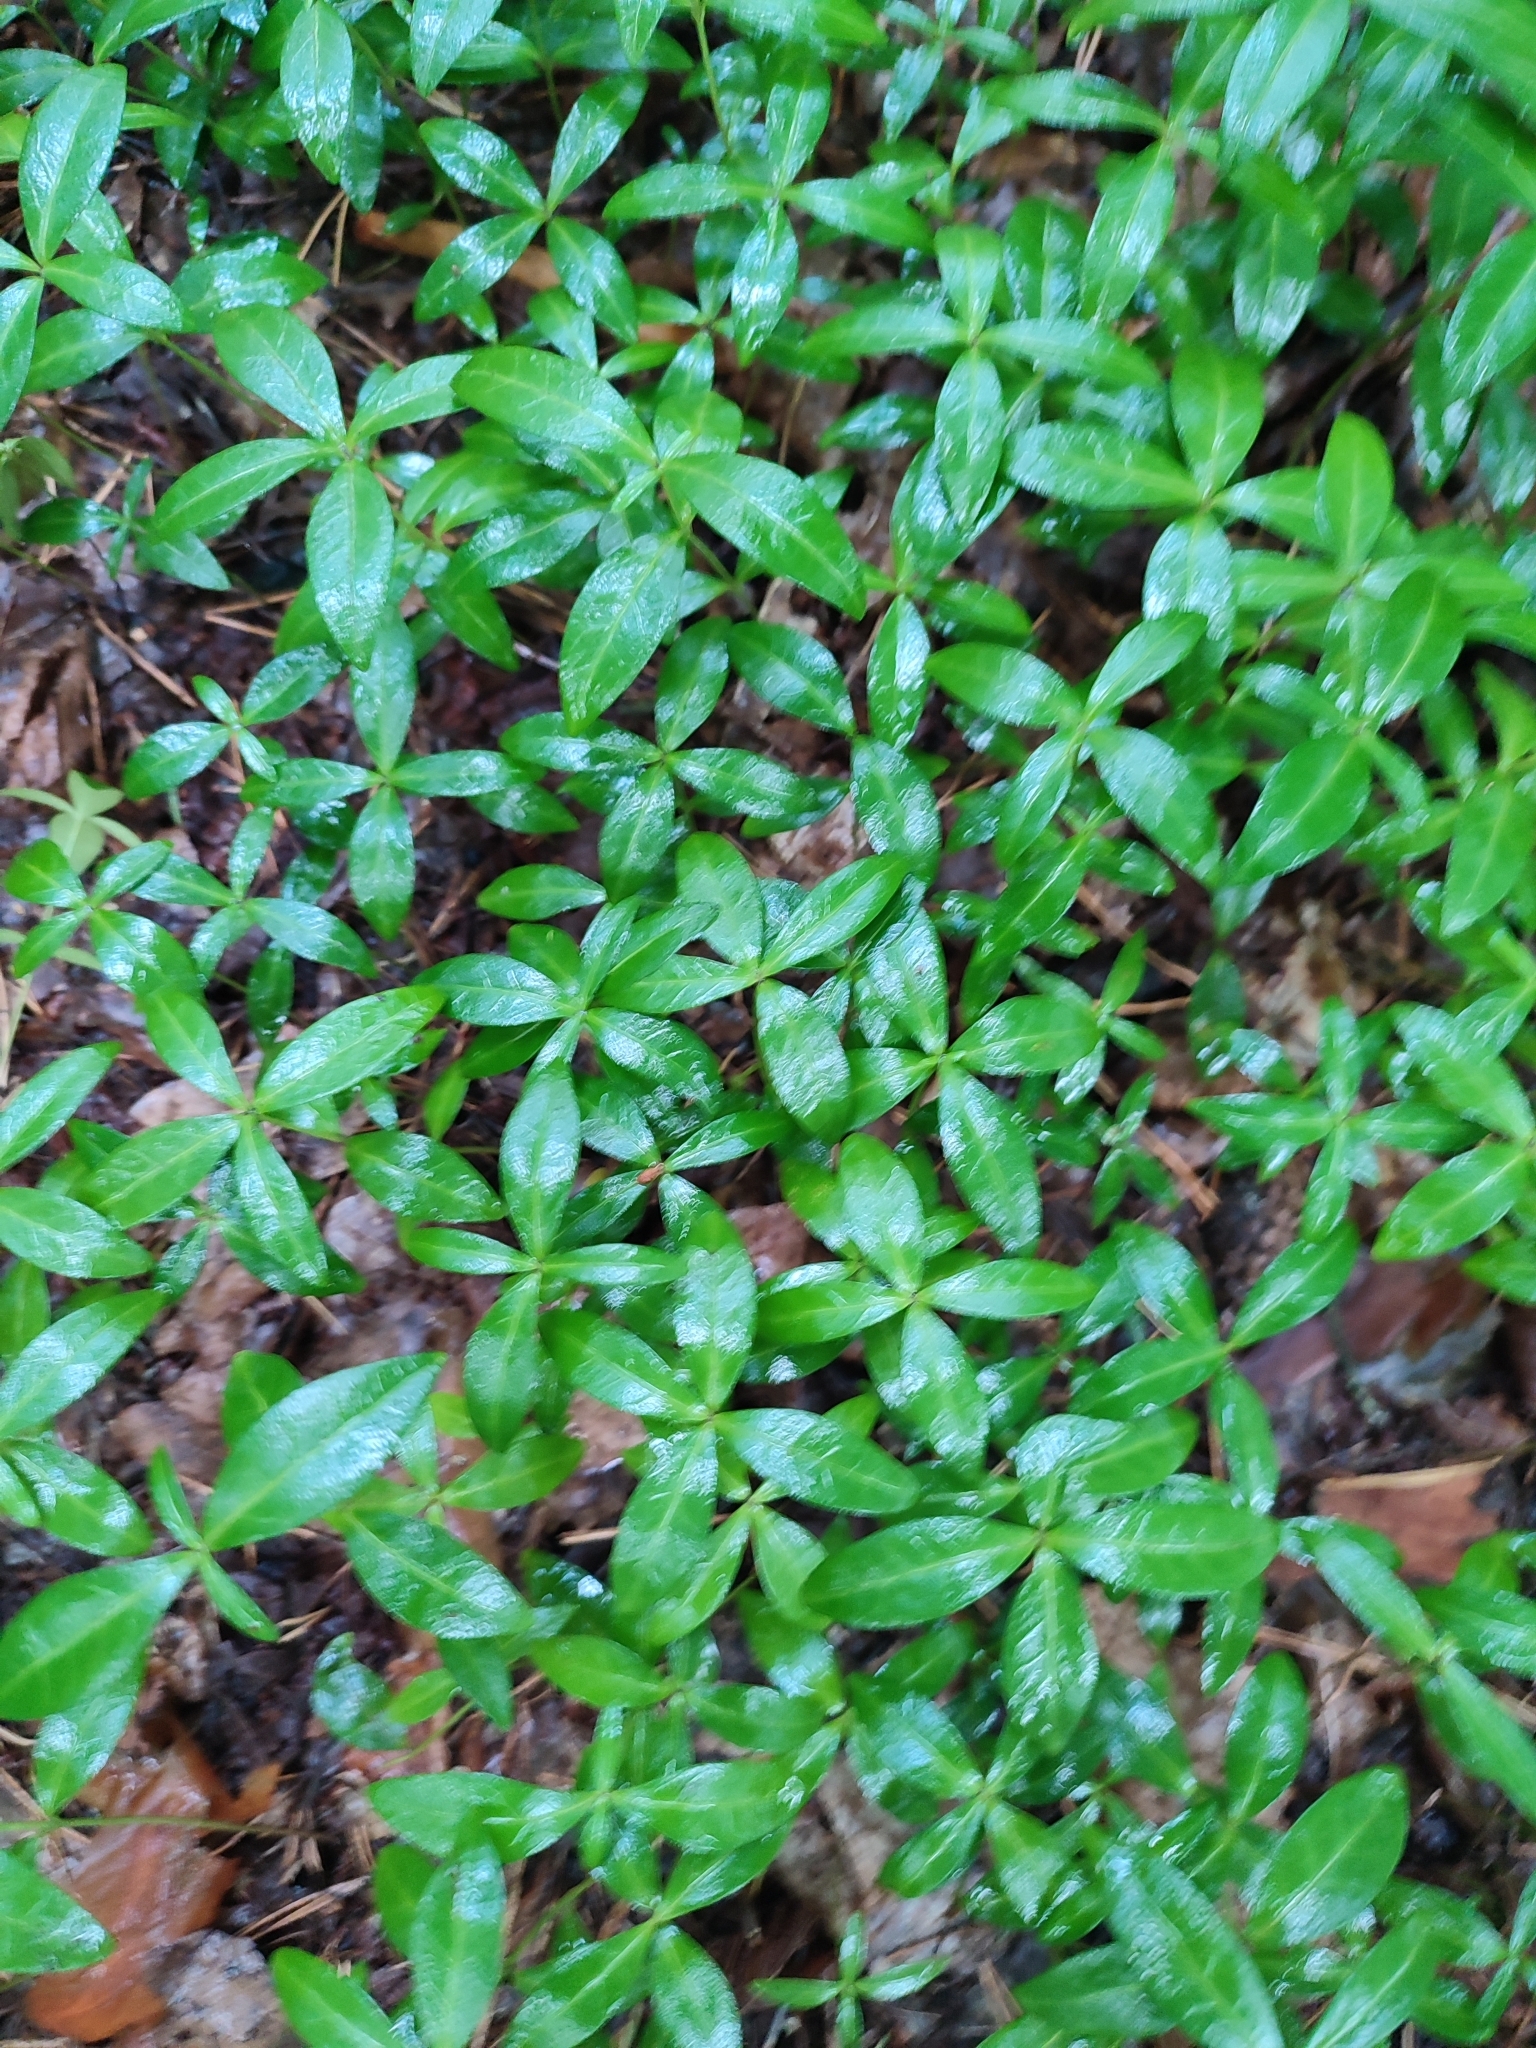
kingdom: Plantae
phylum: Tracheophyta
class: Magnoliopsida
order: Gentianales
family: Apocynaceae
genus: Vinca
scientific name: Vinca minor
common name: Lesser periwinkle
